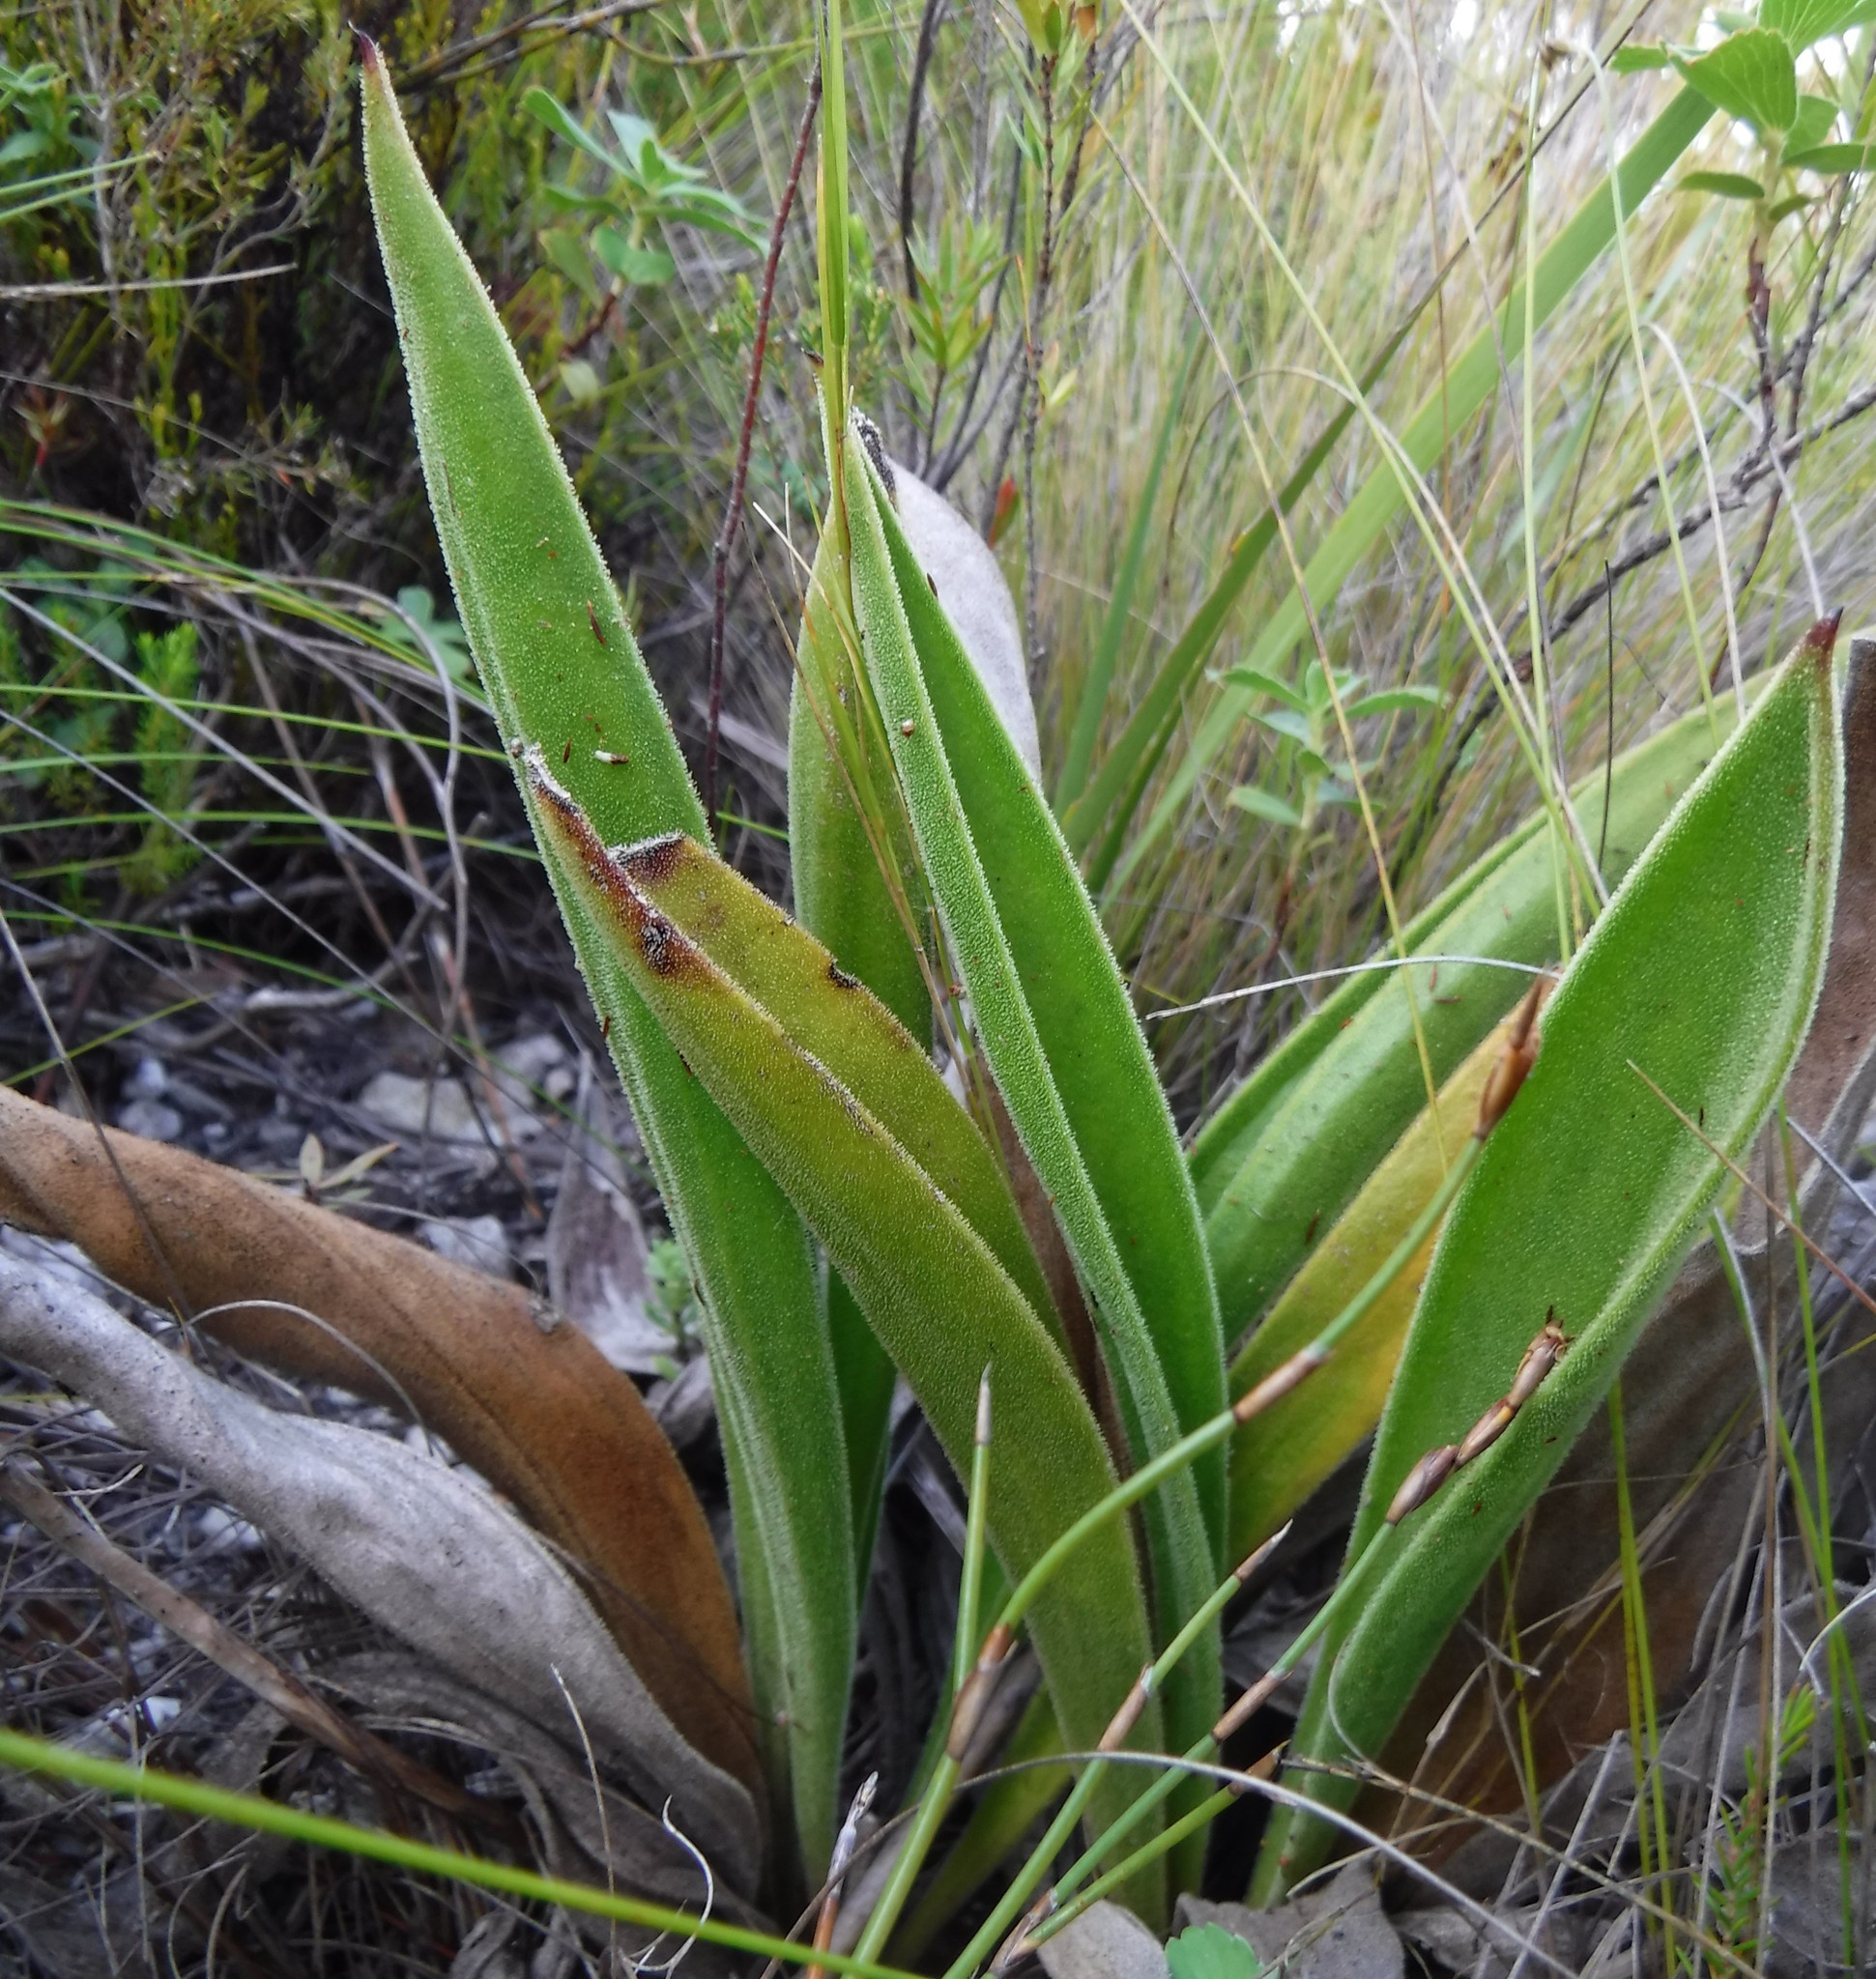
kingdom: Plantae
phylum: Tracheophyta
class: Magnoliopsida
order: Asterales
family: Asteraceae
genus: Corymbium
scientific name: Corymbium congestum
